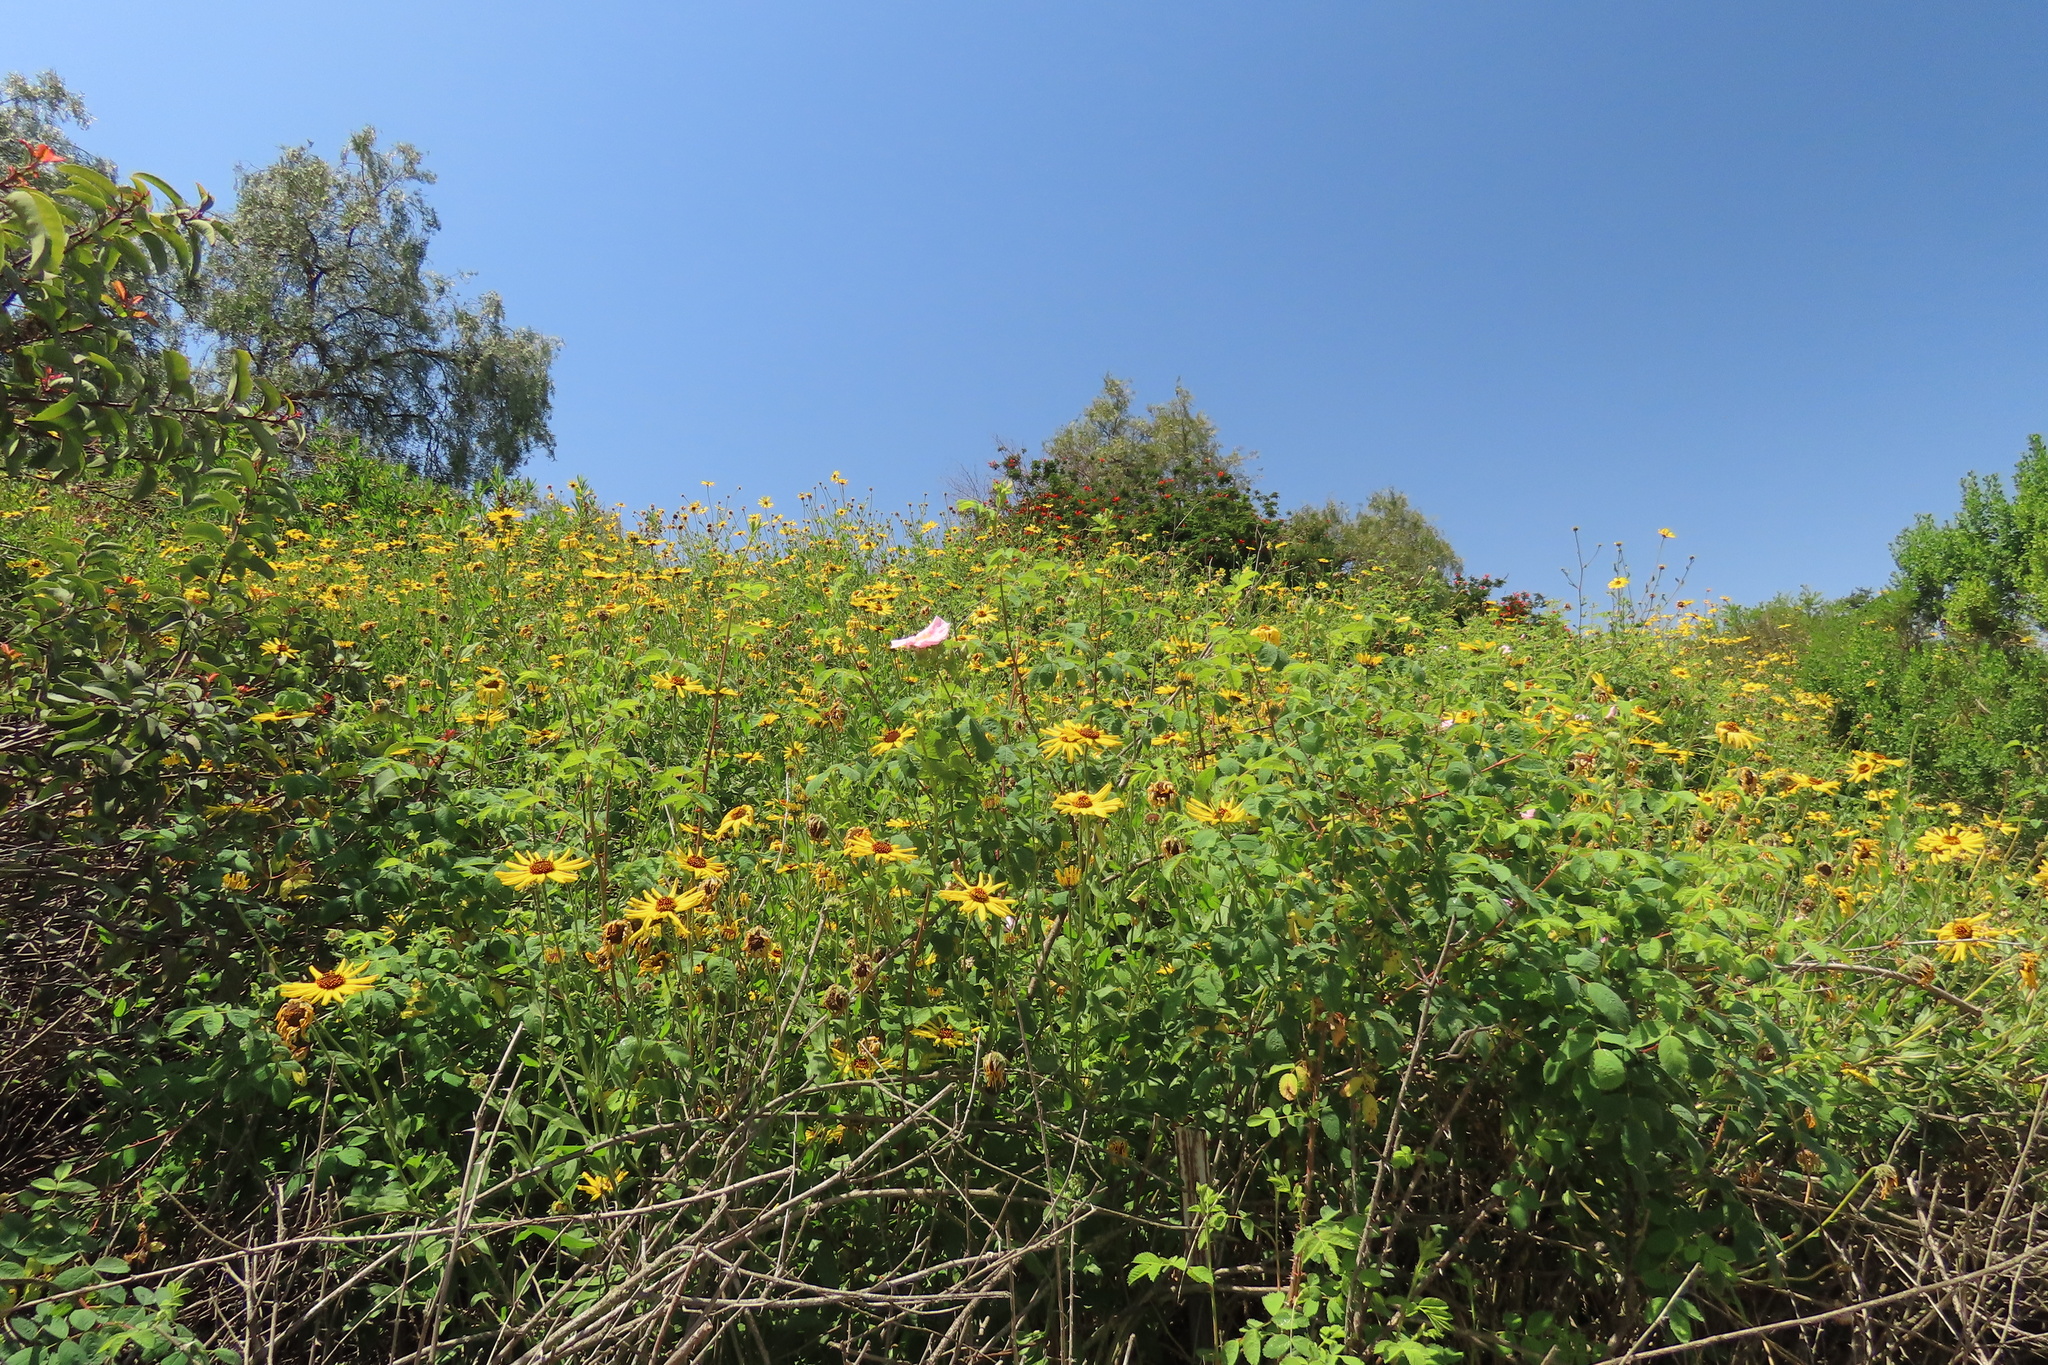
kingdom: Plantae
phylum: Tracheophyta
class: Magnoliopsida
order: Asterales
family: Asteraceae
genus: Encelia
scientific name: Encelia californica
